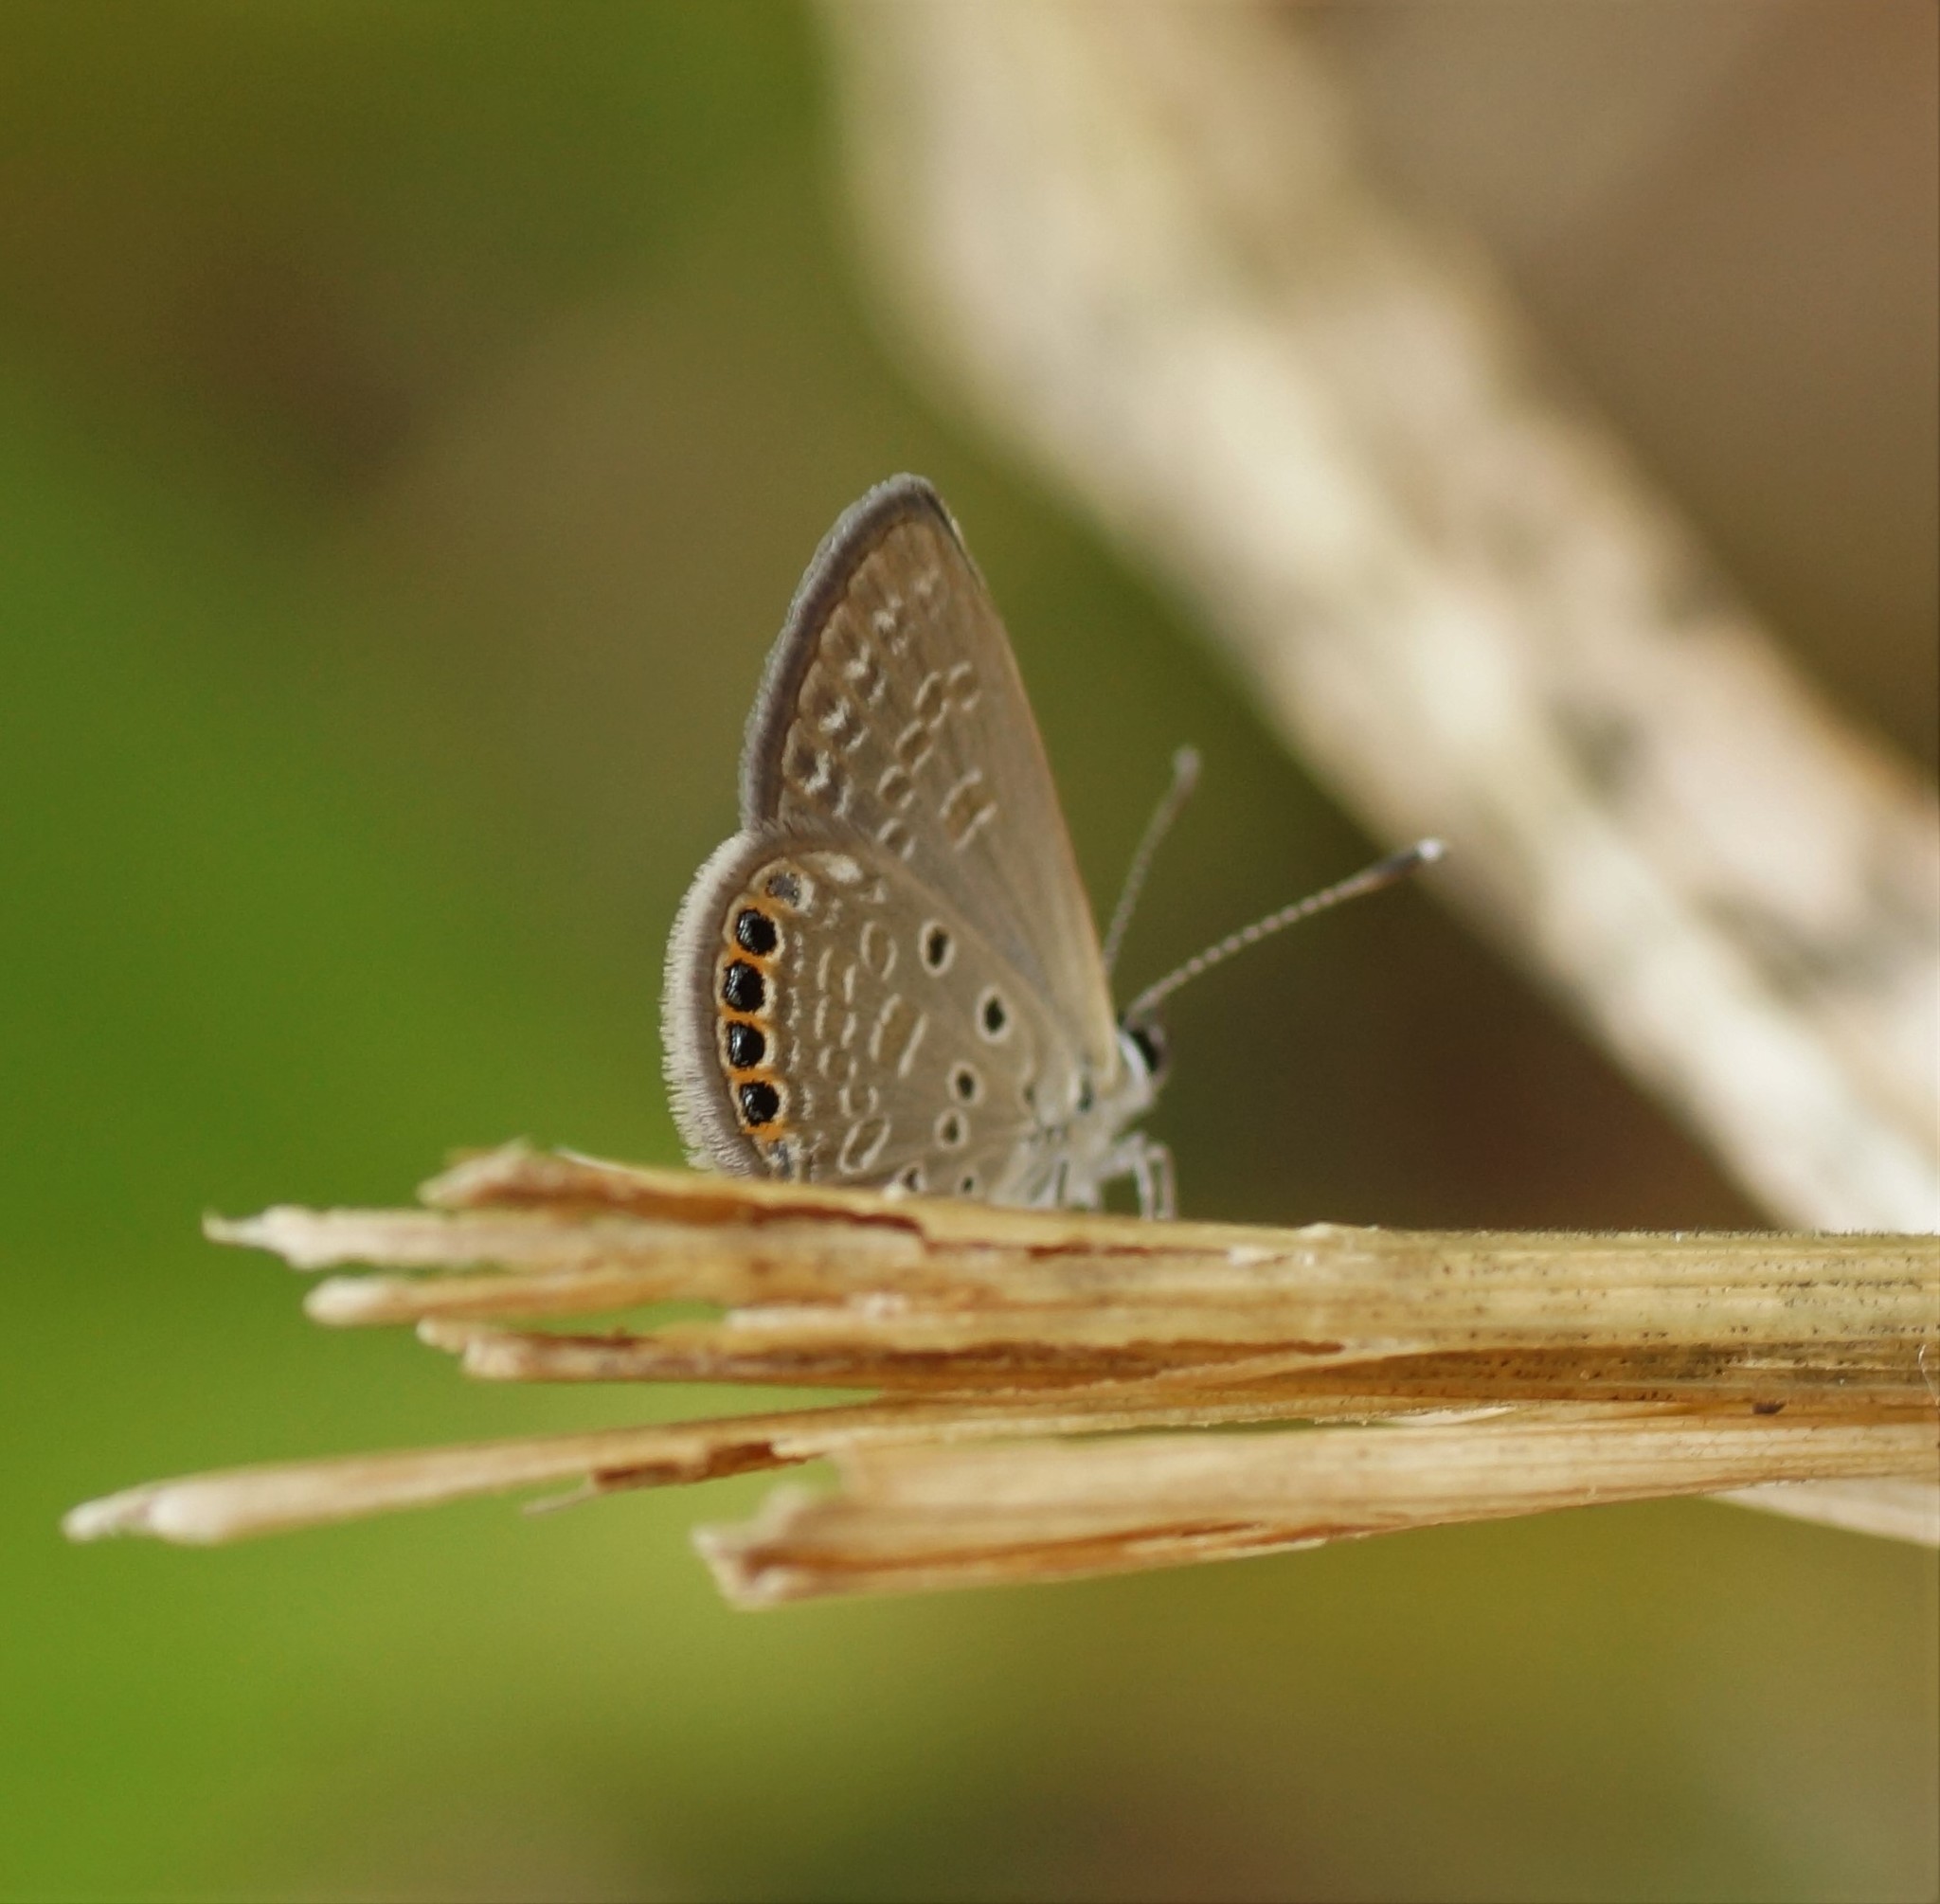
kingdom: Animalia
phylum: Arthropoda
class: Insecta
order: Lepidoptera
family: Lycaenidae
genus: Freyeria
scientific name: Freyeria putli
